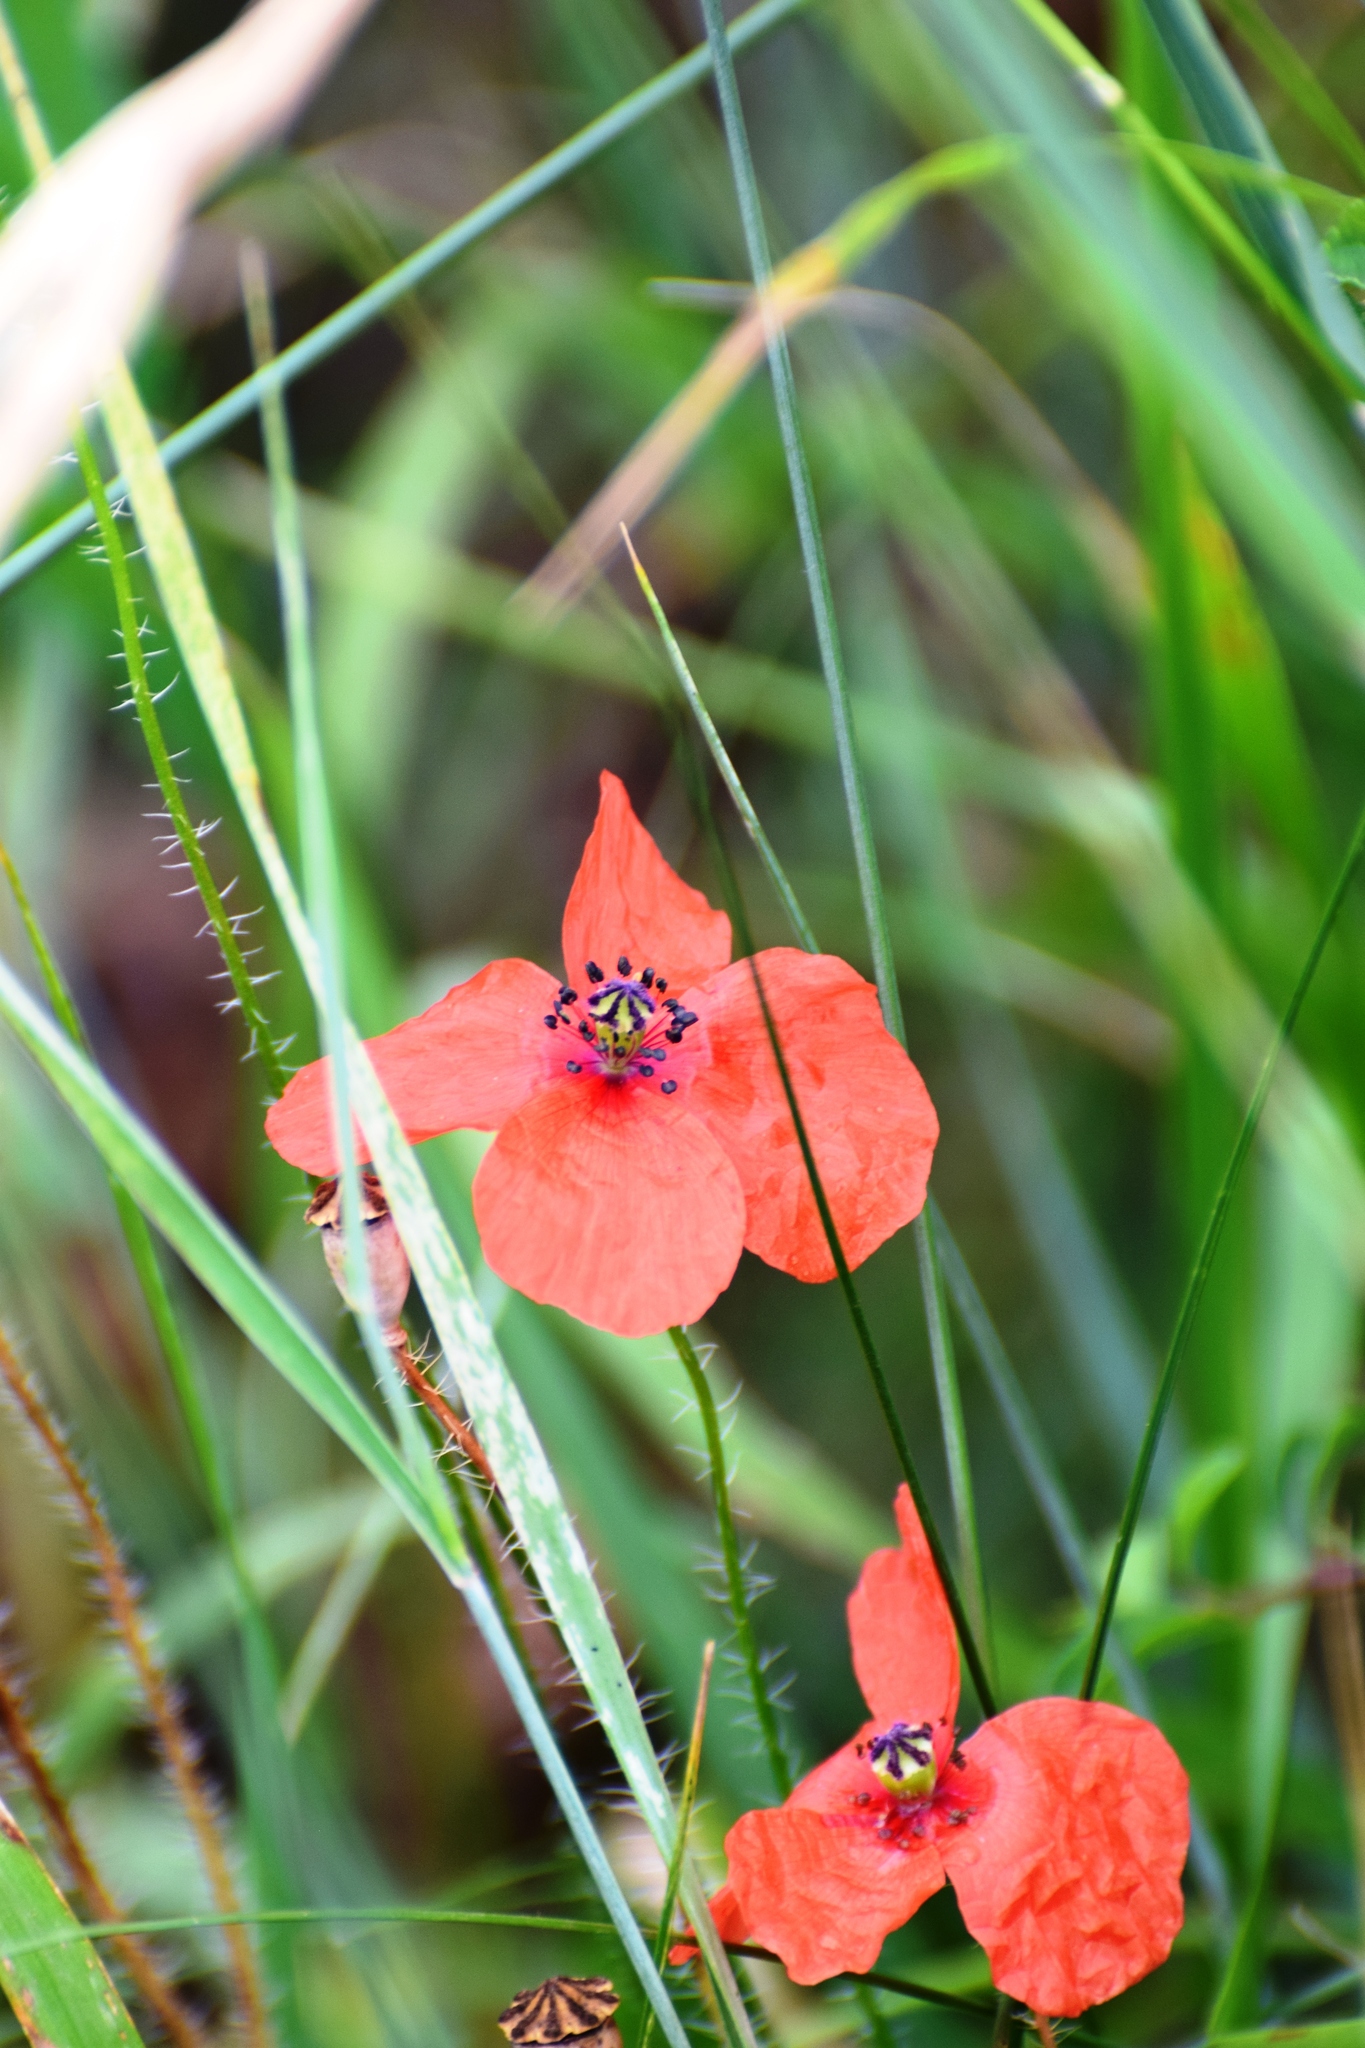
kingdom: Plantae
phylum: Tracheophyta
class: Magnoliopsida
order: Ranunculales
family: Papaveraceae
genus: Papaver
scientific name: Papaver dubium
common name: Long-headed poppy
